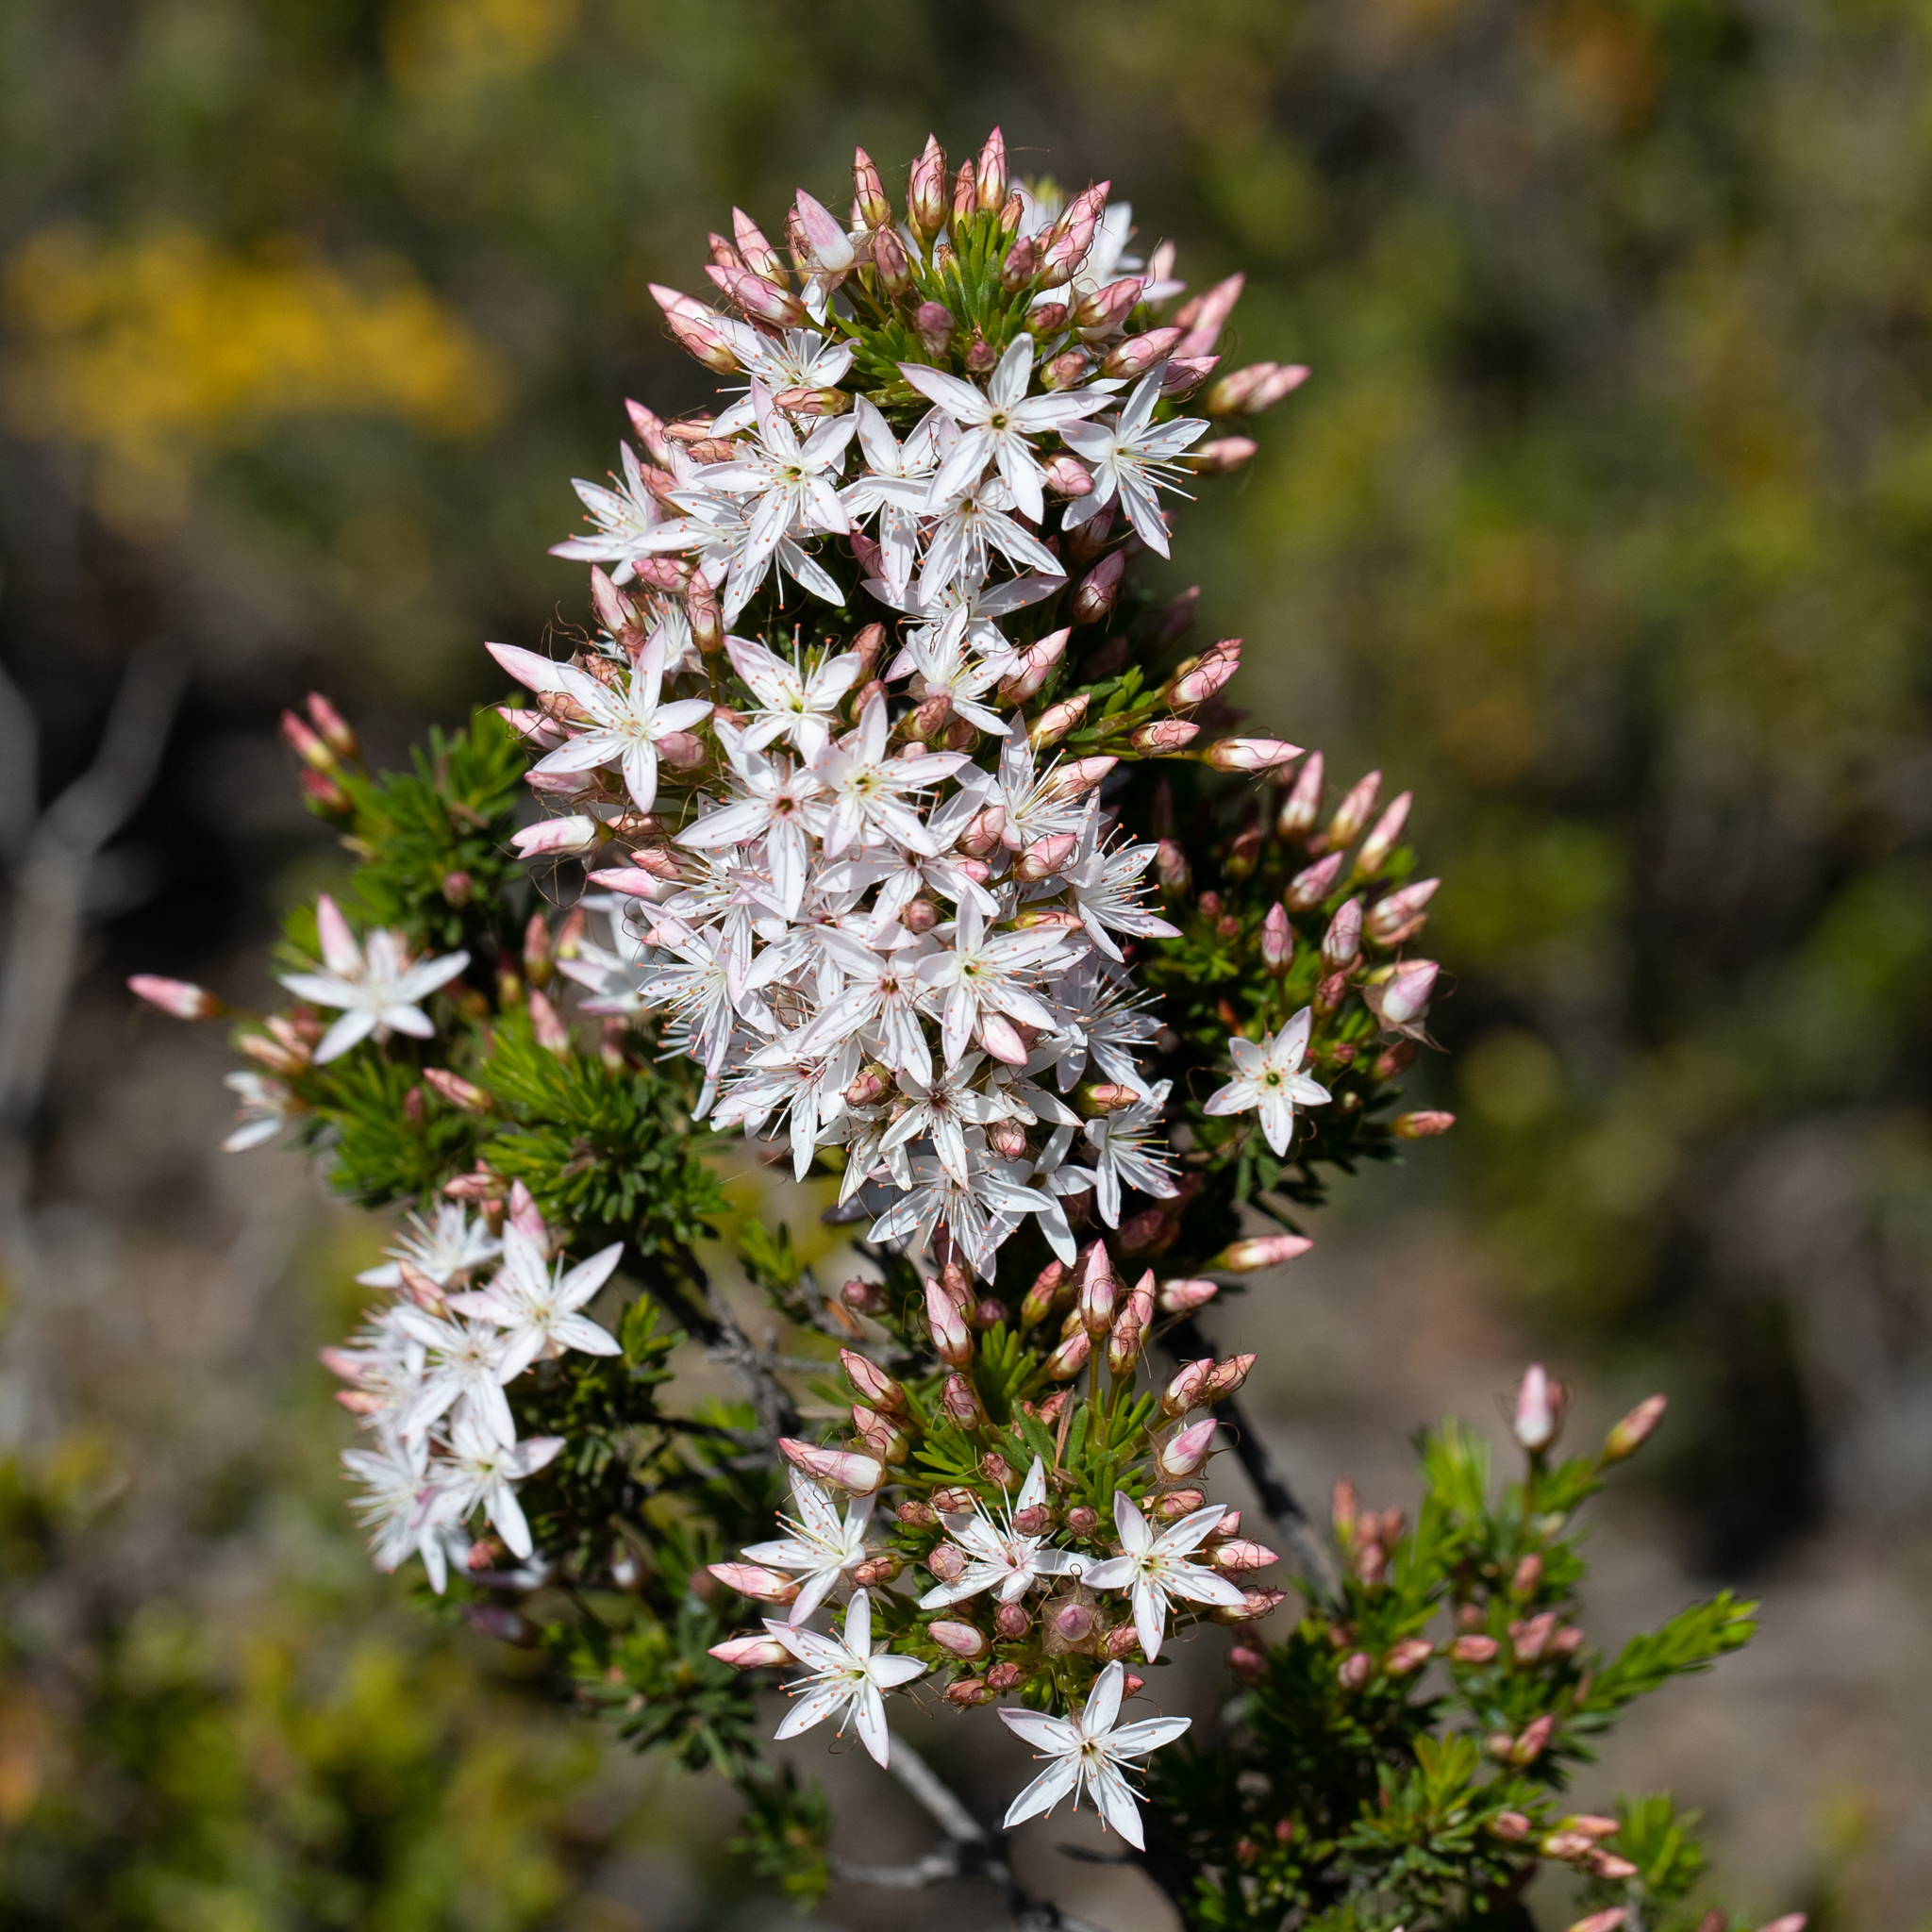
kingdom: Plantae
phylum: Tracheophyta
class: Magnoliopsida
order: Myrtales
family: Myrtaceae
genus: Calytrix
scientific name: Calytrix tetragona
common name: Common fringe myrtle
